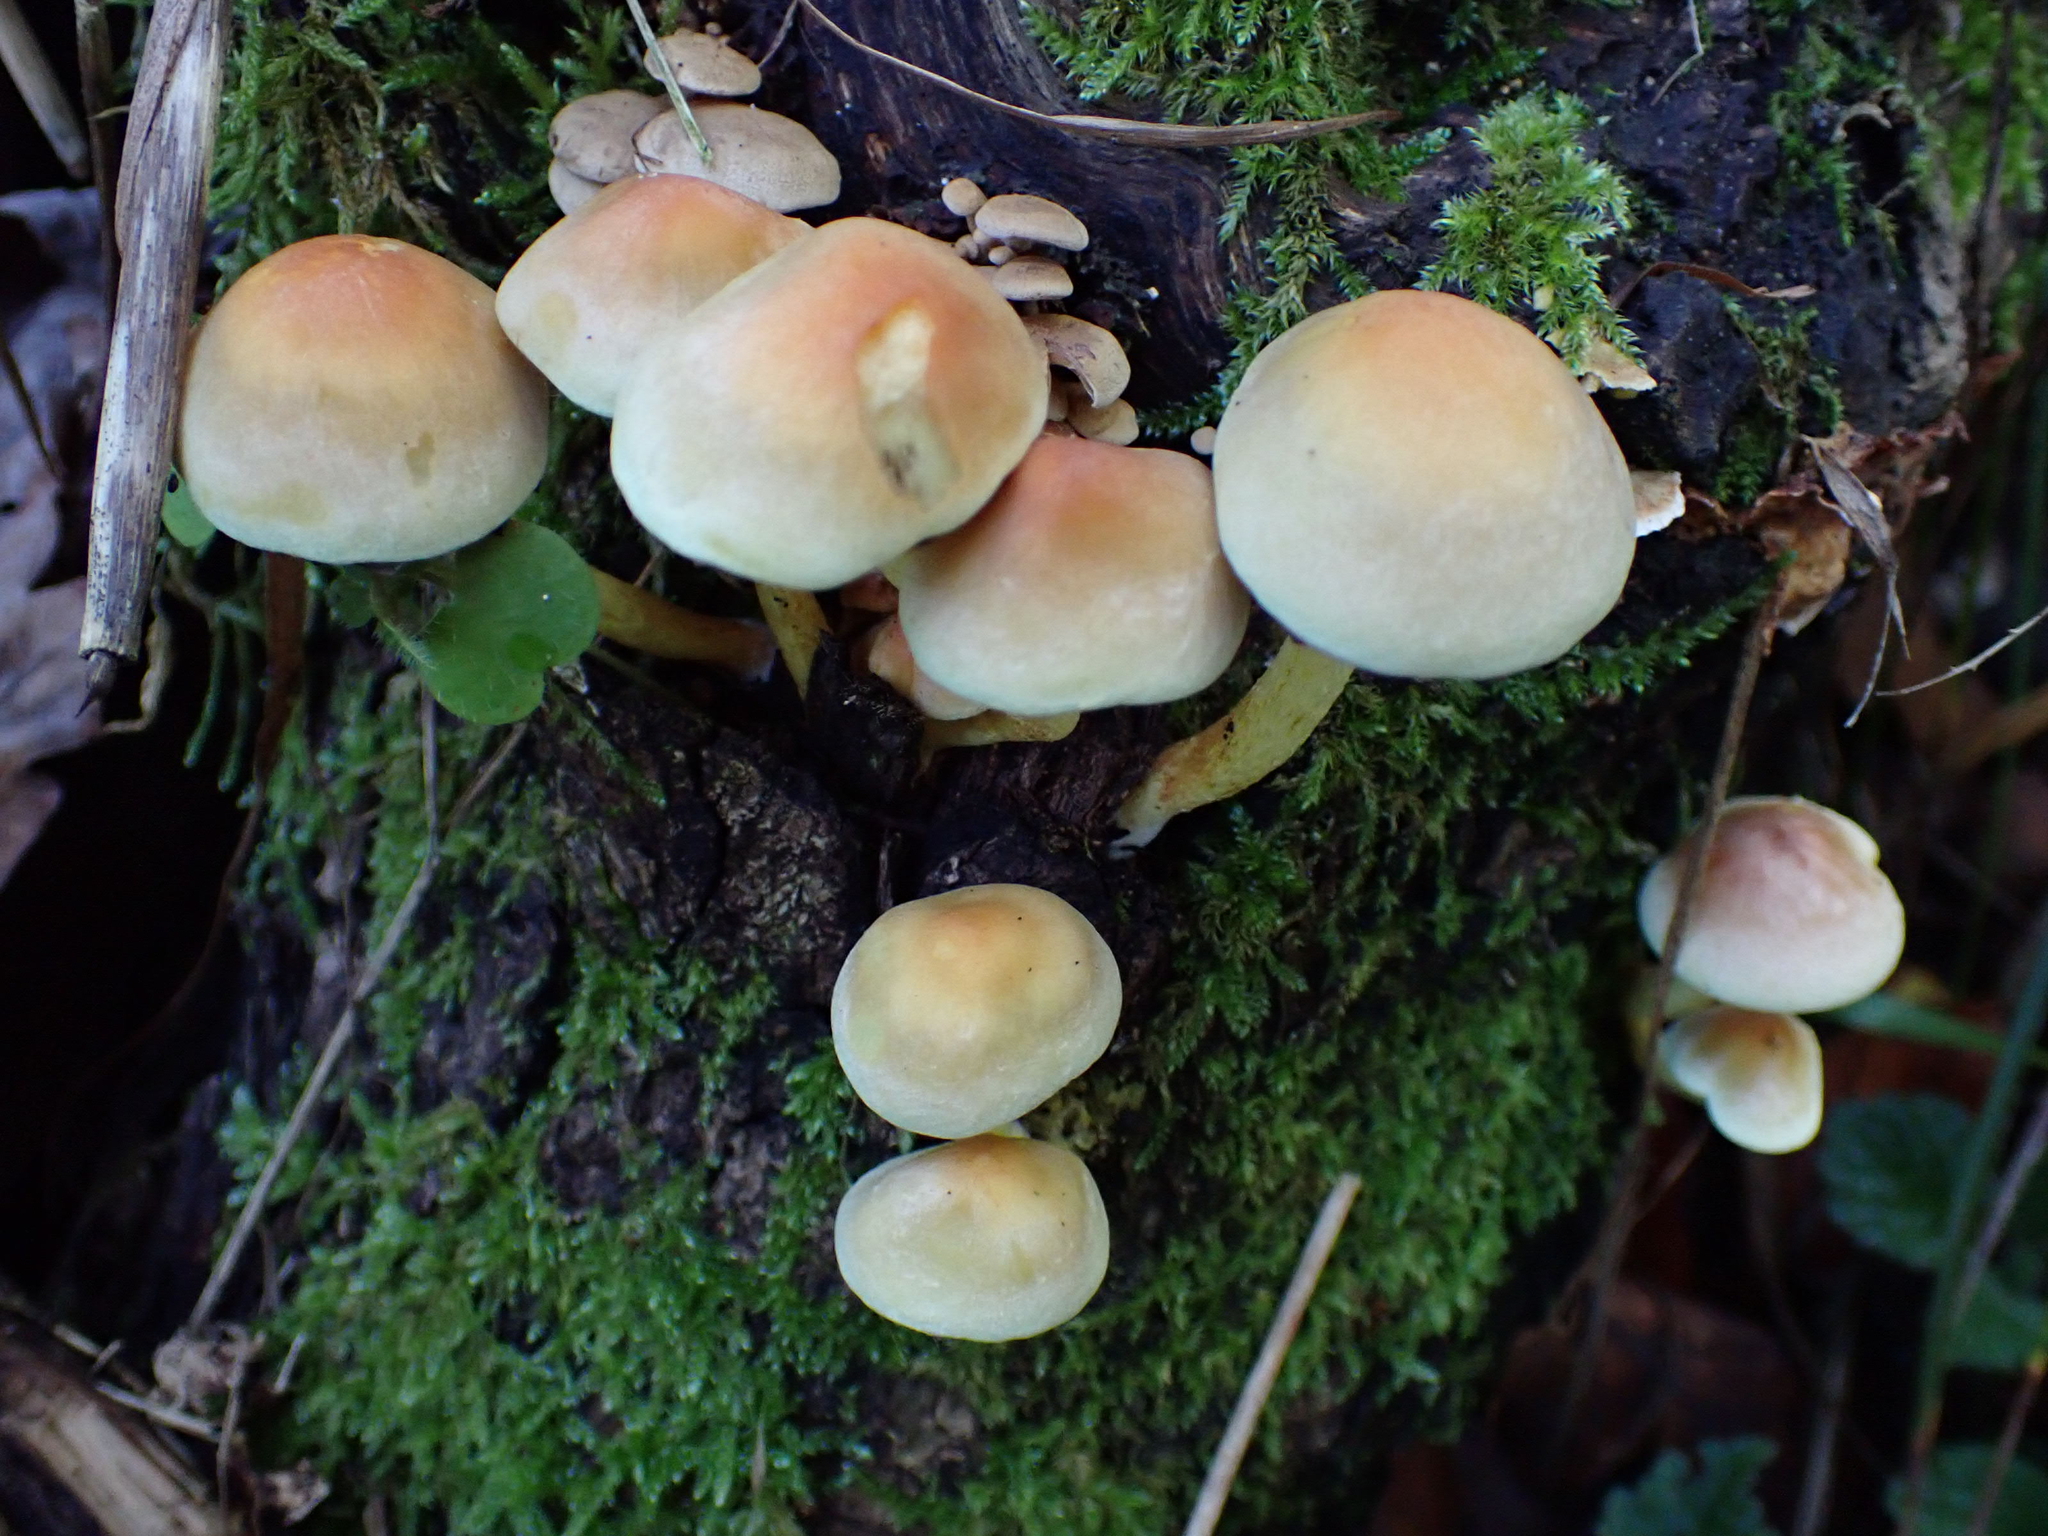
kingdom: Fungi
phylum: Basidiomycota
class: Agaricomycetes
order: Agaricales
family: Strophariaceae
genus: Hypholoma
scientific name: Hypholoma fasciculare
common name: Sulphur tuft
